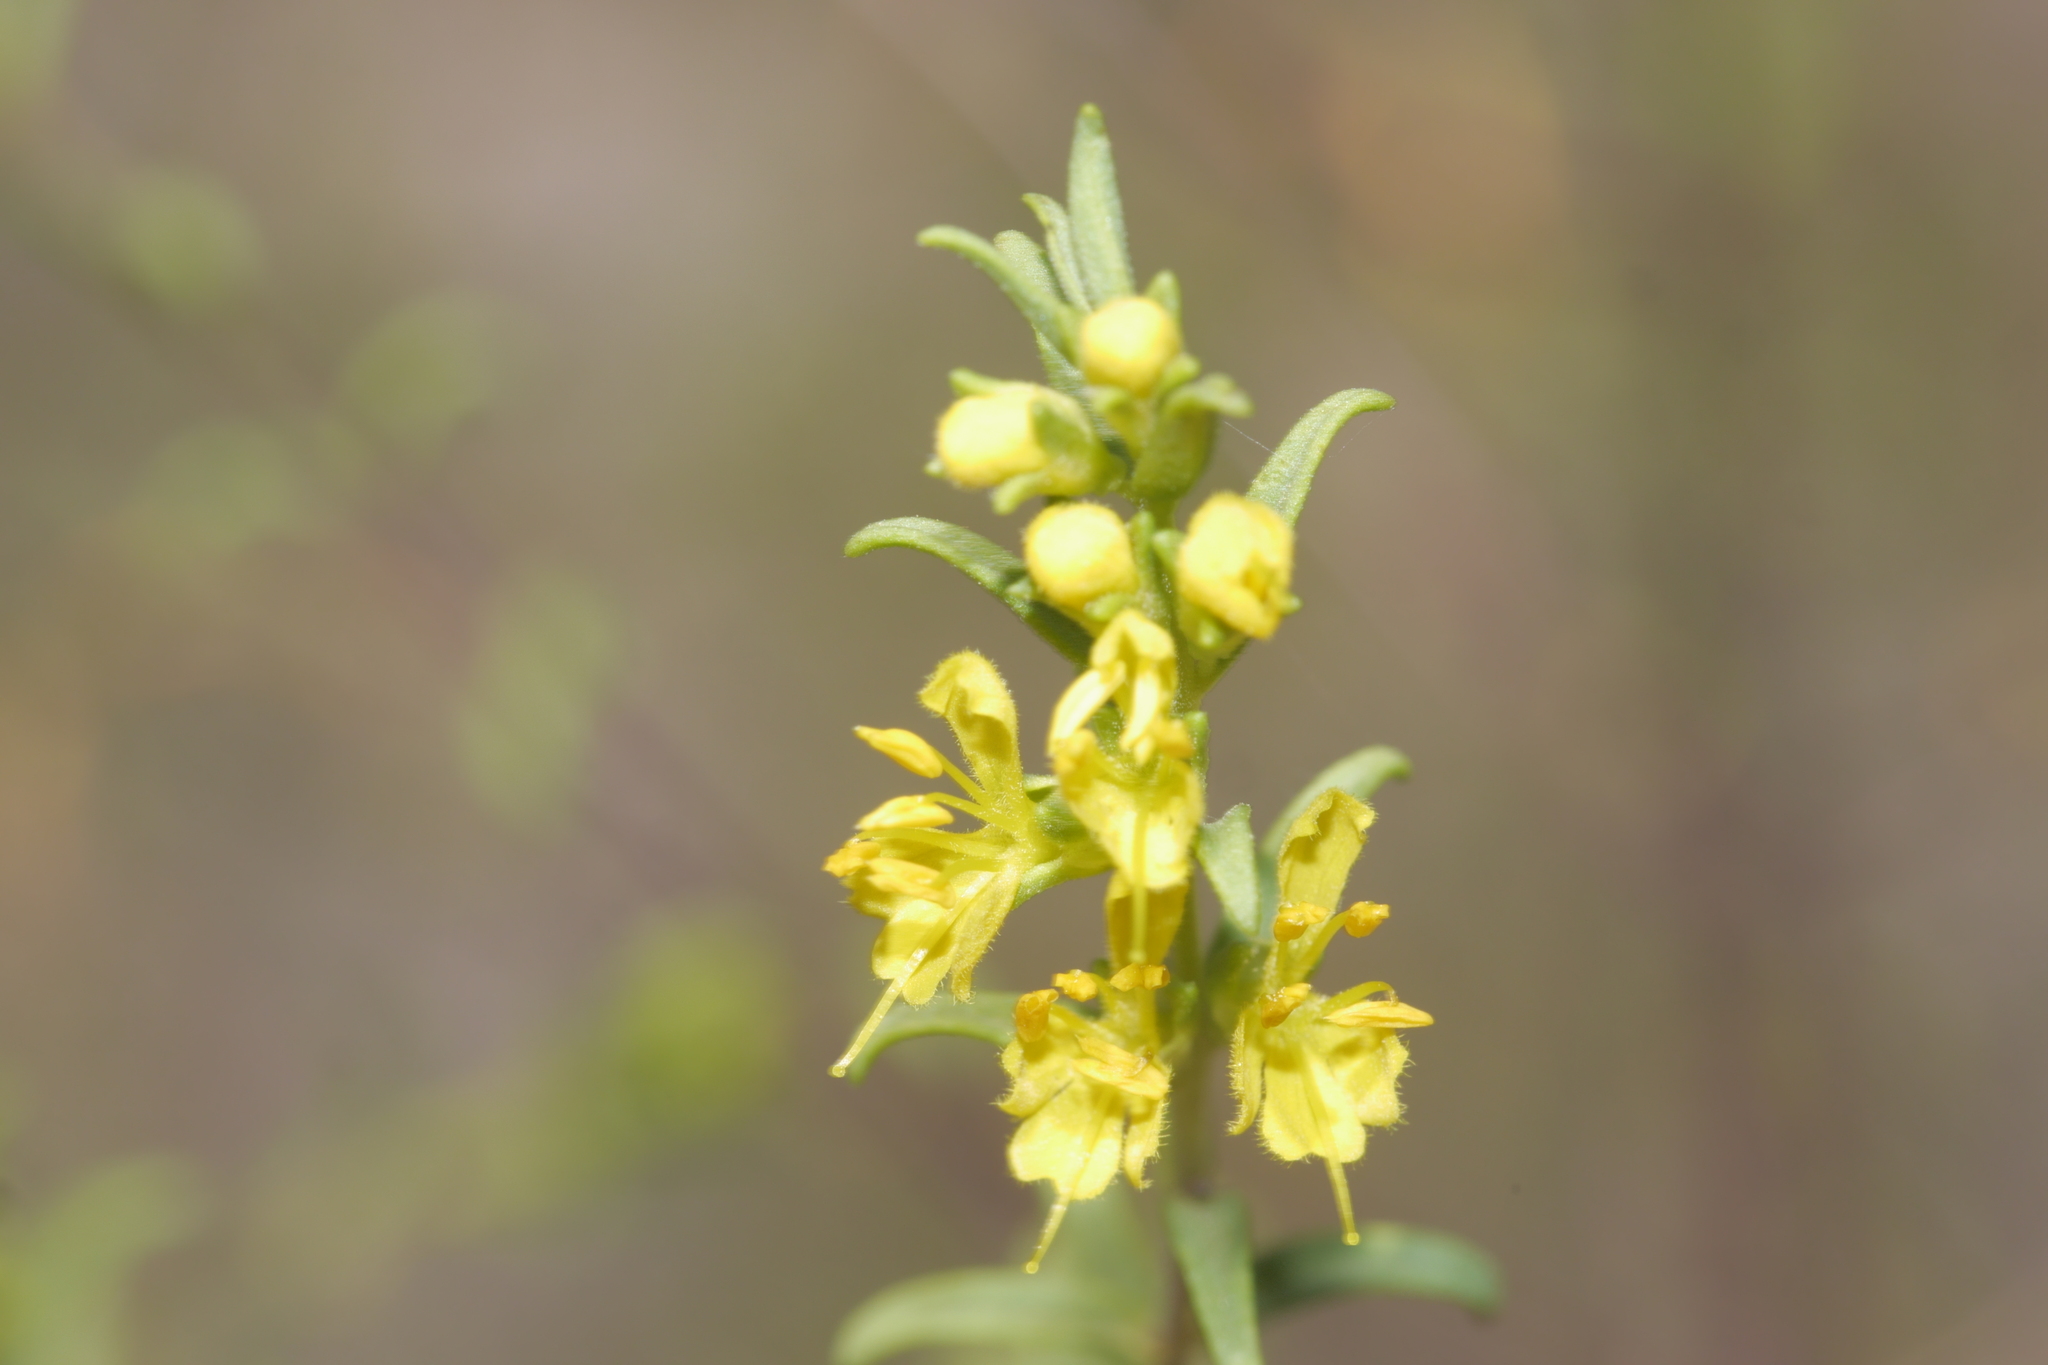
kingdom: Plantae
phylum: Tracheophyta
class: Magnoliopsida
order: Lamiales
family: Orobanchaceae
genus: Odontites
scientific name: Odontites luteus
